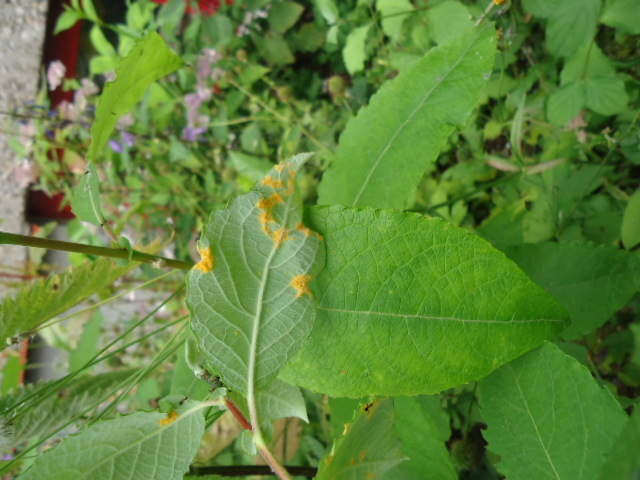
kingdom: Fungi
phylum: Basidiomycota
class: Pucciniomycetes
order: Pucciniales
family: Melampsoraceae
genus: Melampsora
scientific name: Melampsora
